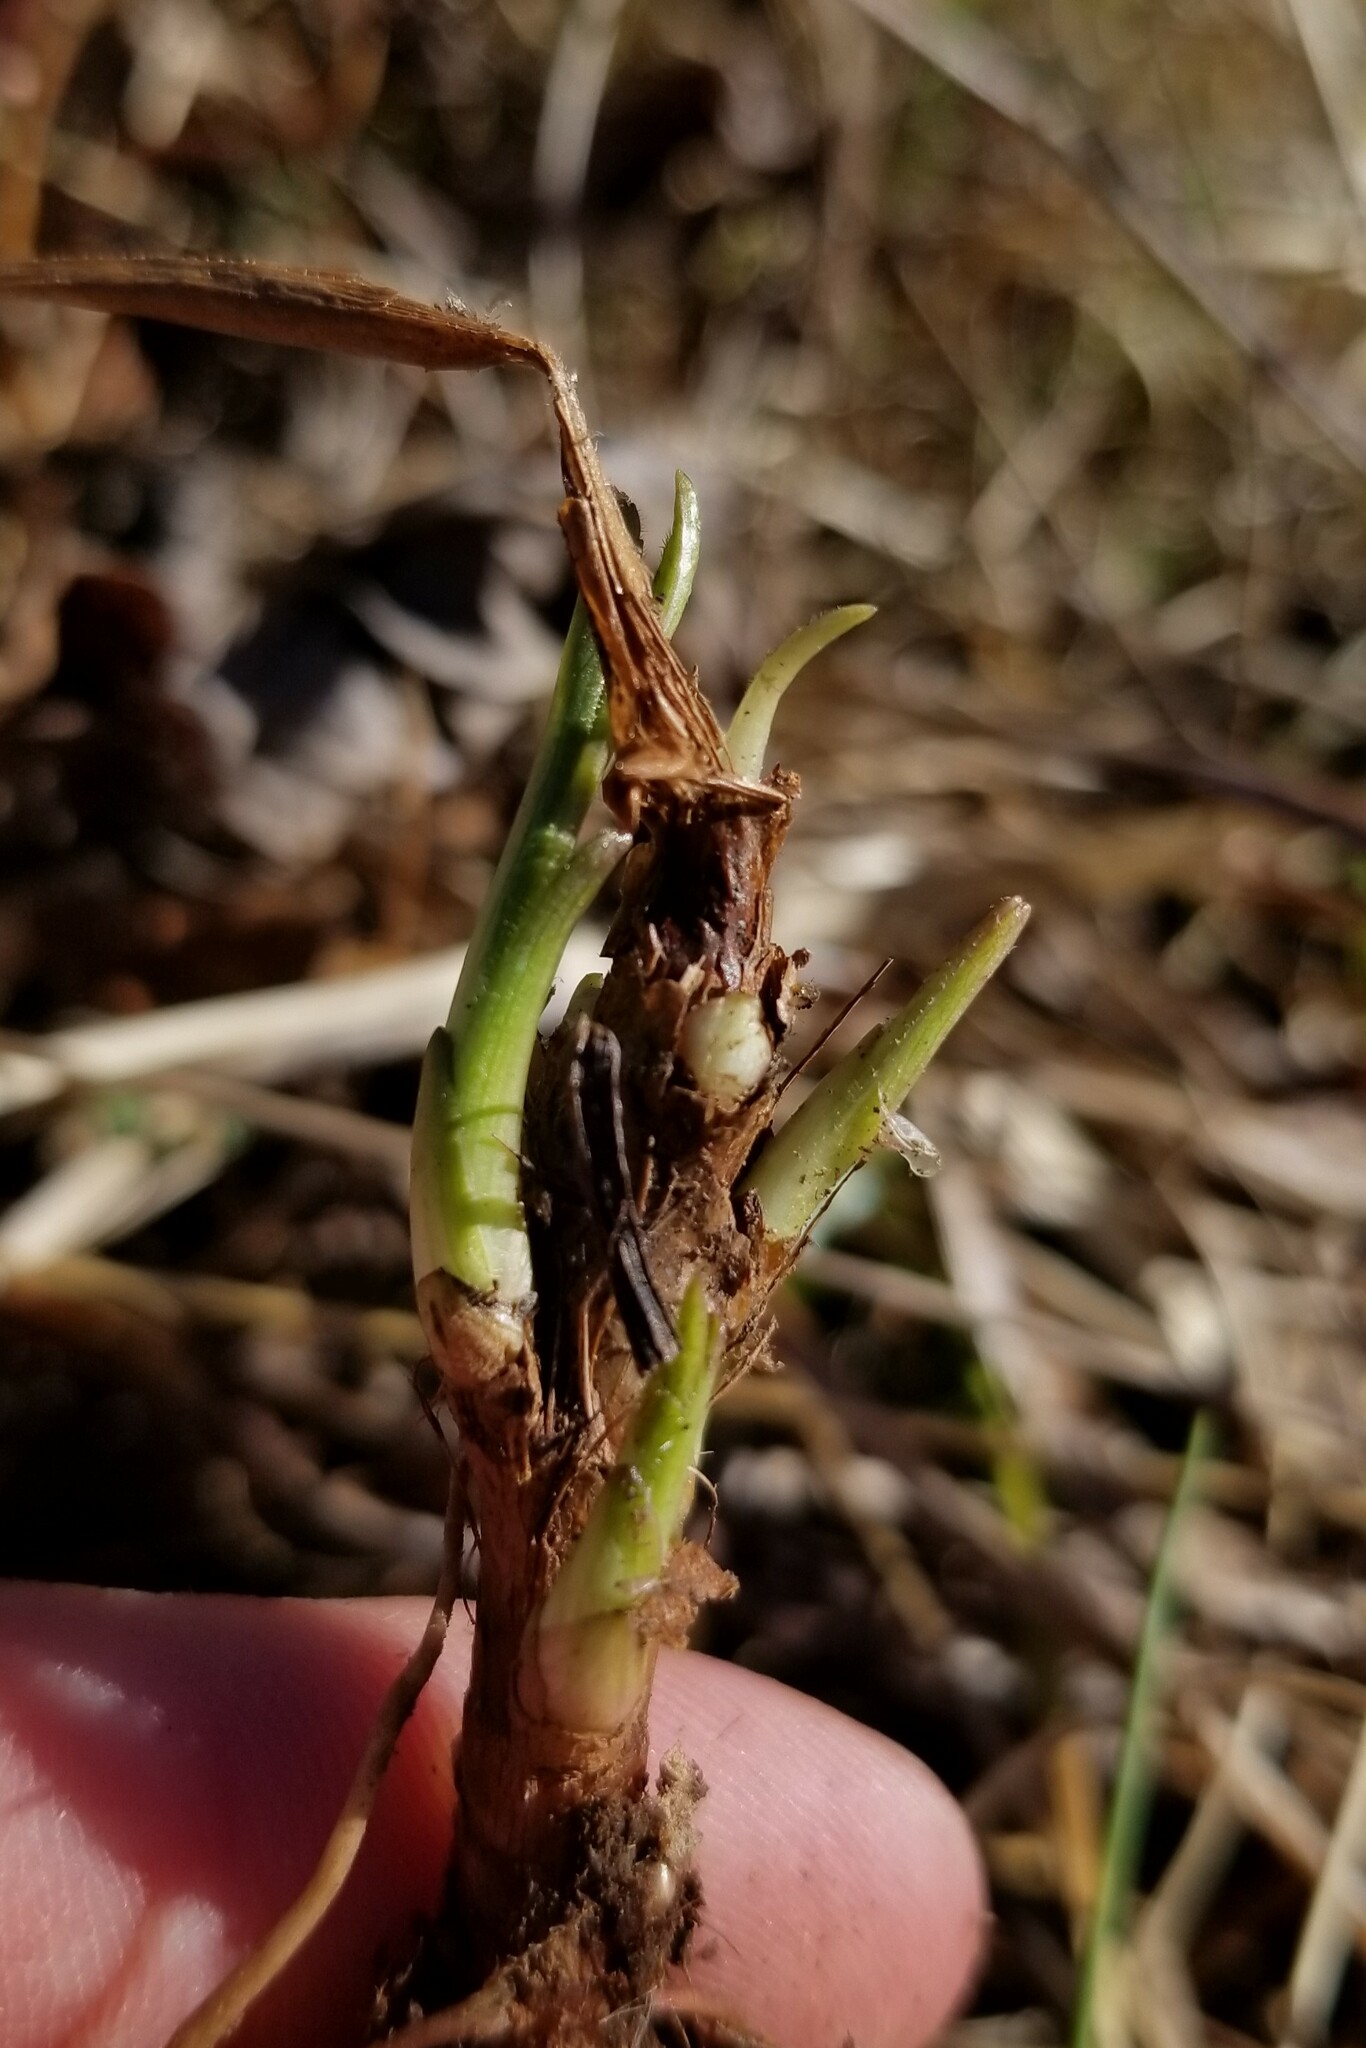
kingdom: Animalia
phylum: Arthropoda
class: Insecta
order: Diptera
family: Cecidomyiidae
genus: Rhopalomyia
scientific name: Rhopalomyia bulbula
